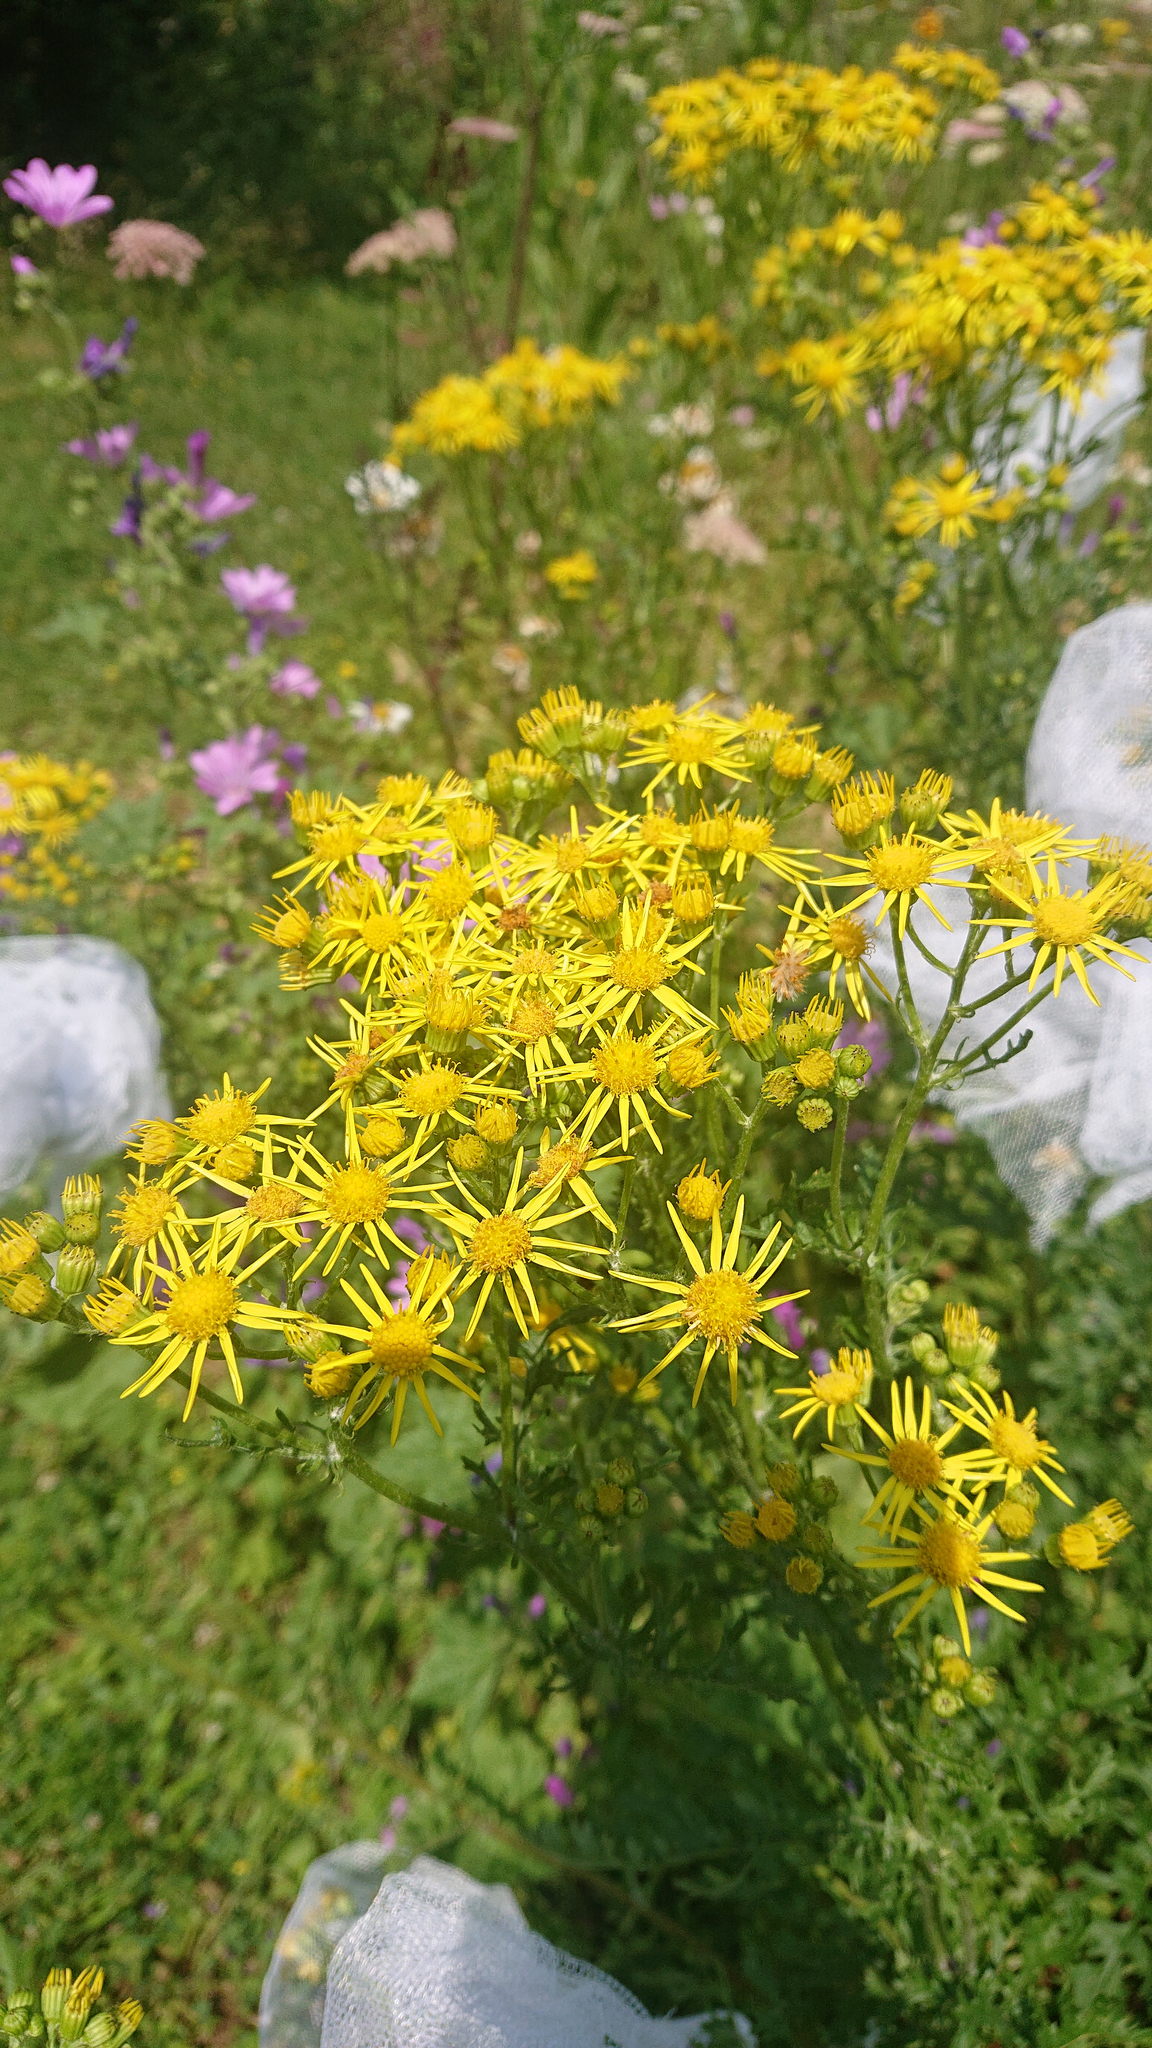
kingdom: Plantae
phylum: Tracheophyta
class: Magnoliopsida
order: Asterales
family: Asteraceae
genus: Jacobaea
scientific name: Jacobaea vulgaris
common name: Stinking willie
